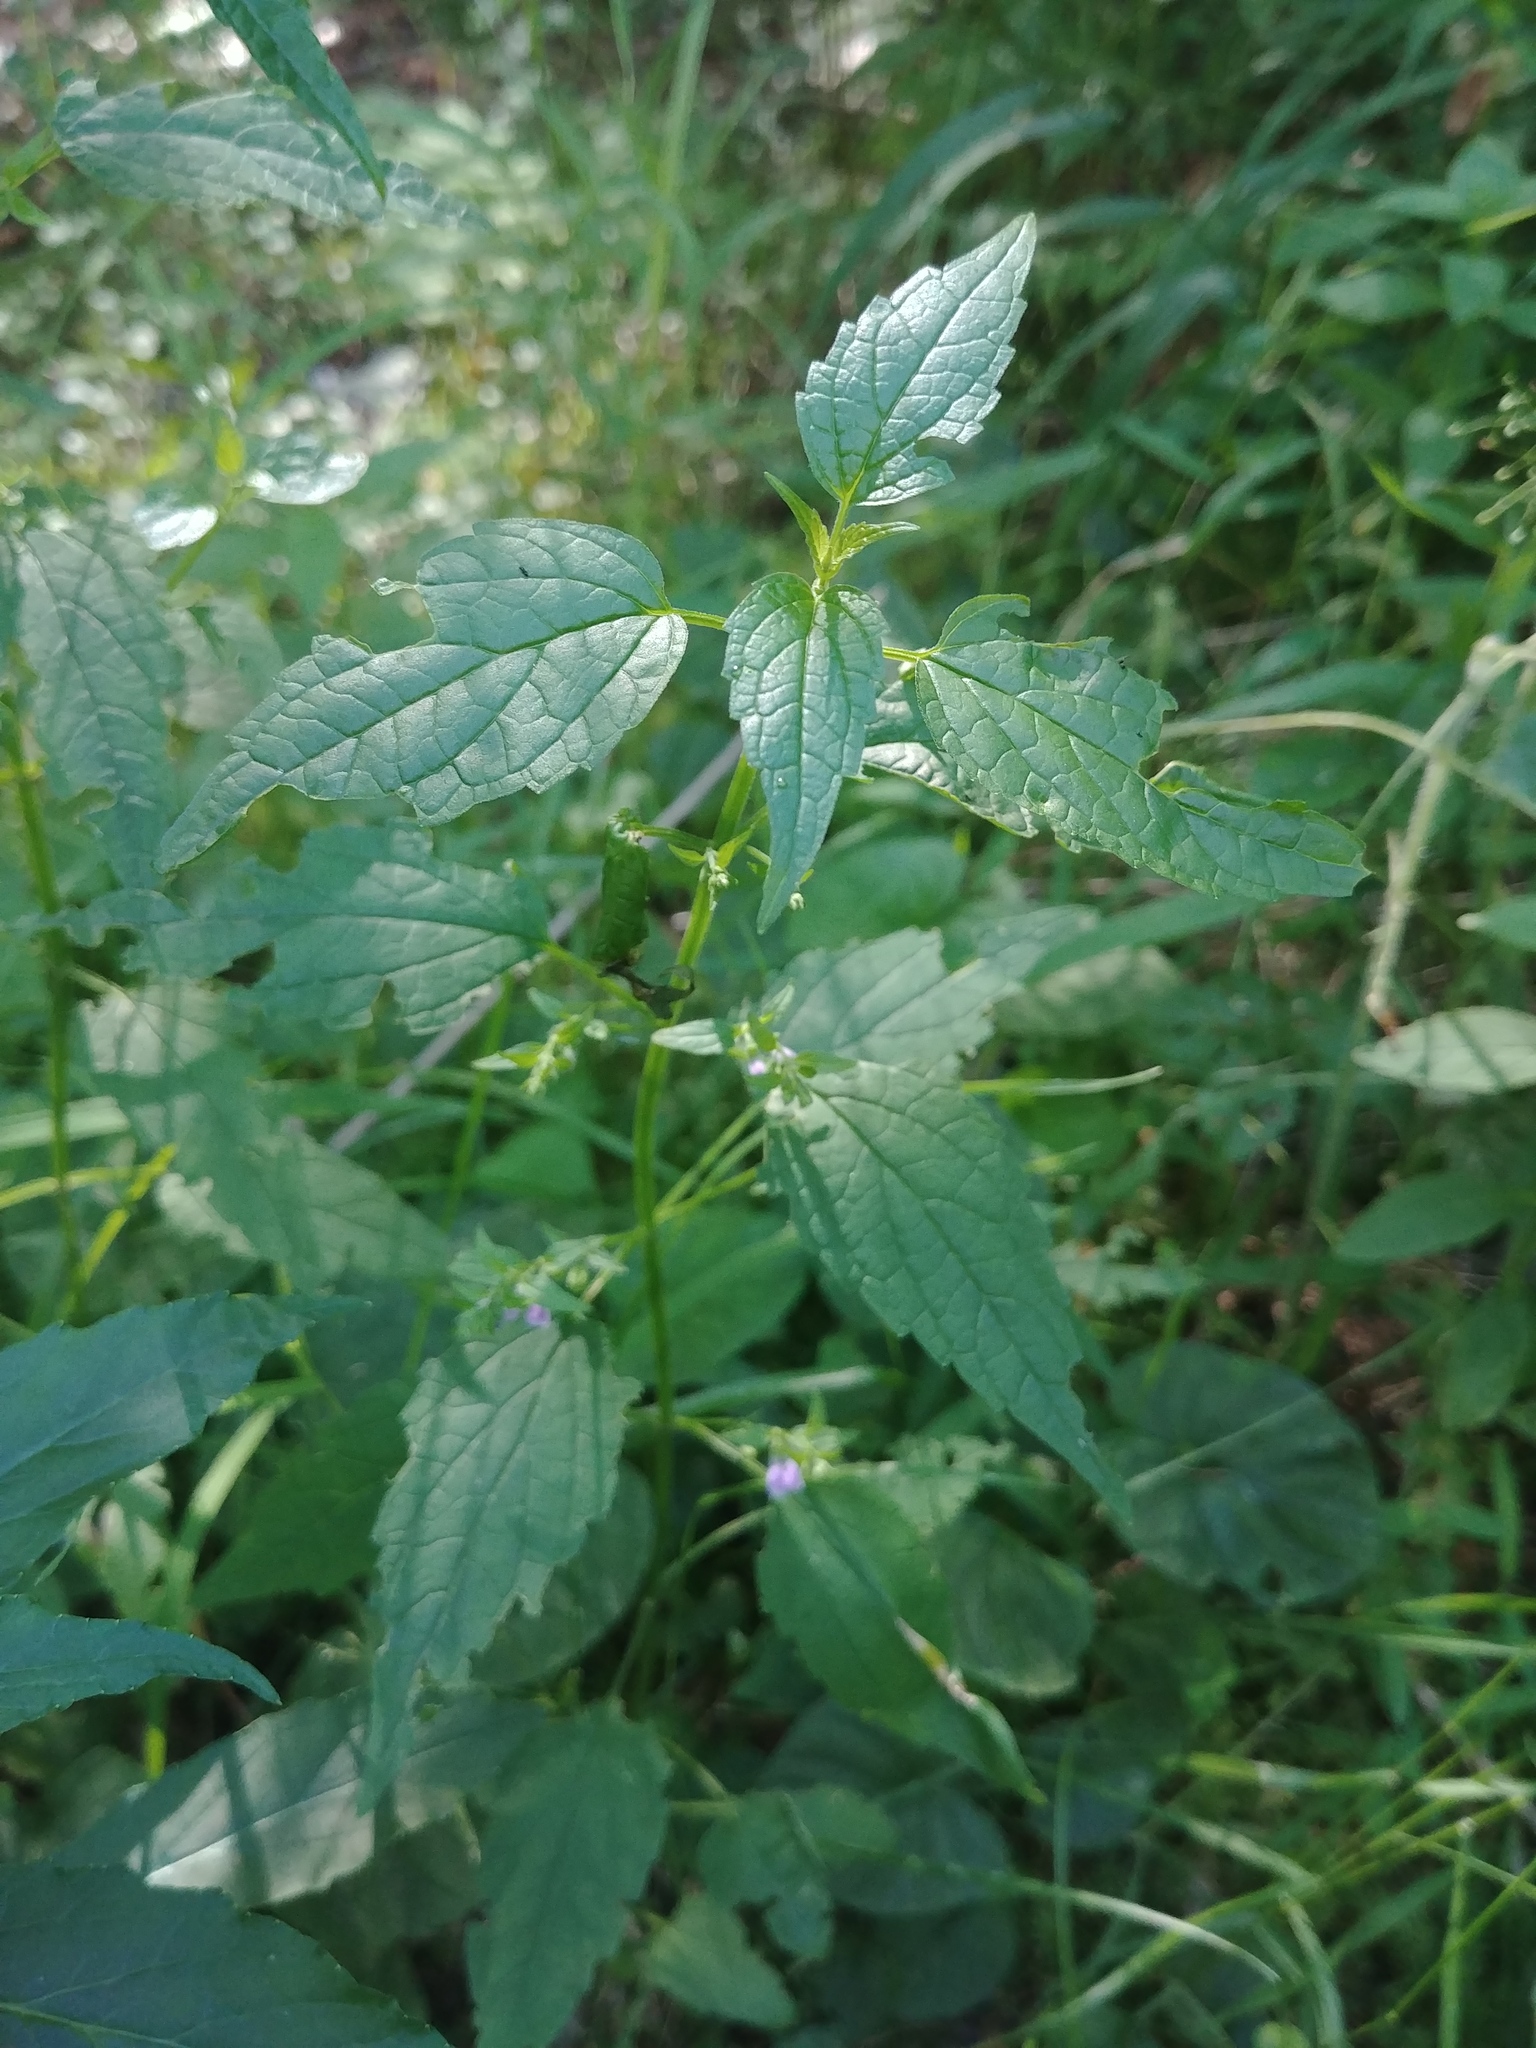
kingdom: Plantae
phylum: Tracheophyta
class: Magnoliopsida
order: Lamiales
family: Lamiaceae
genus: Scutellaria
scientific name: Scutellaria lateriflora
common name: Blue skullcap
